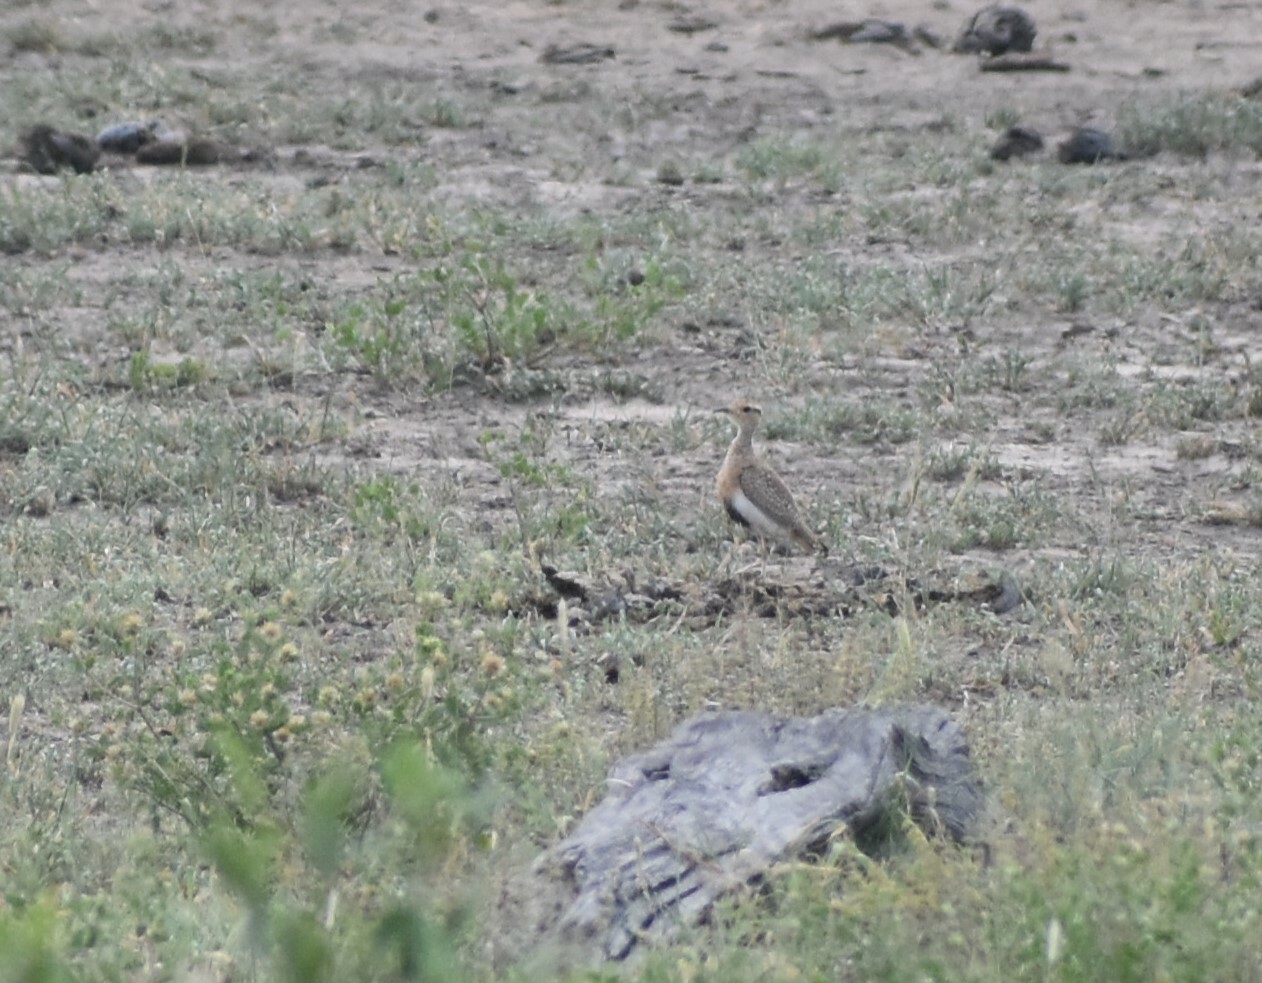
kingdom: Animalia
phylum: Chordata
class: Aves
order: Charadriiformes
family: Glareolidae
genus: Cursorius
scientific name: Cursorius temminckii
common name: Temminck's courser
